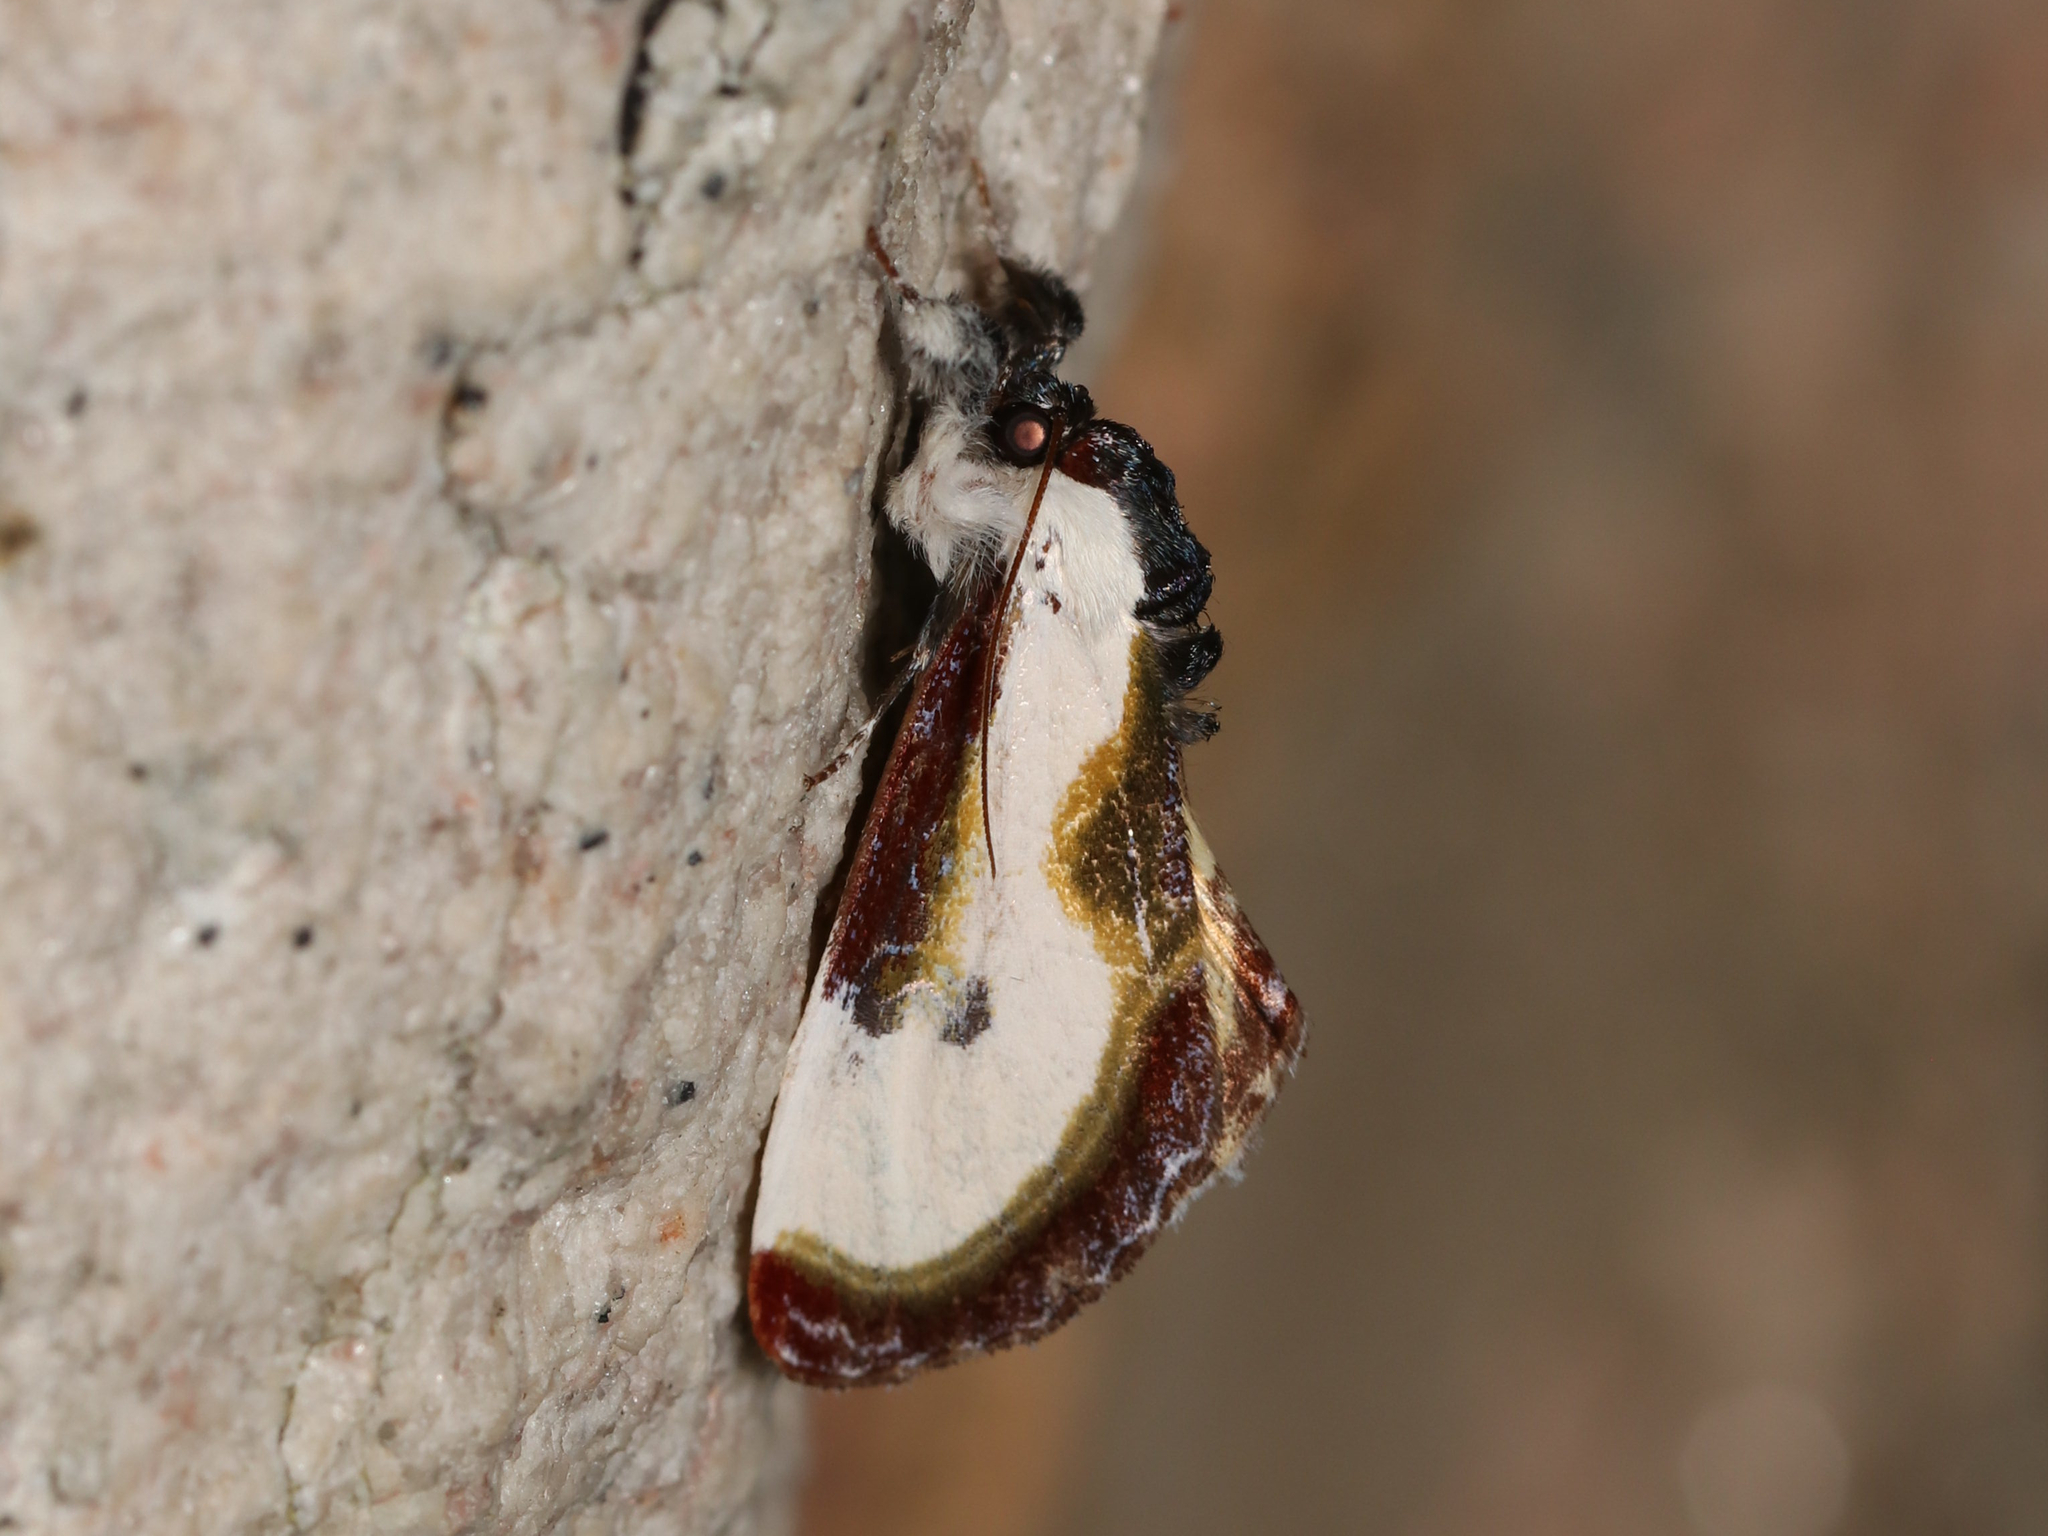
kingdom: Animalia
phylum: Arthropoda
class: Insecta
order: Lepidoptera
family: Noctuidae
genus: Eudryas
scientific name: Eudryas grata
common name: Beautiful wood-nymph
